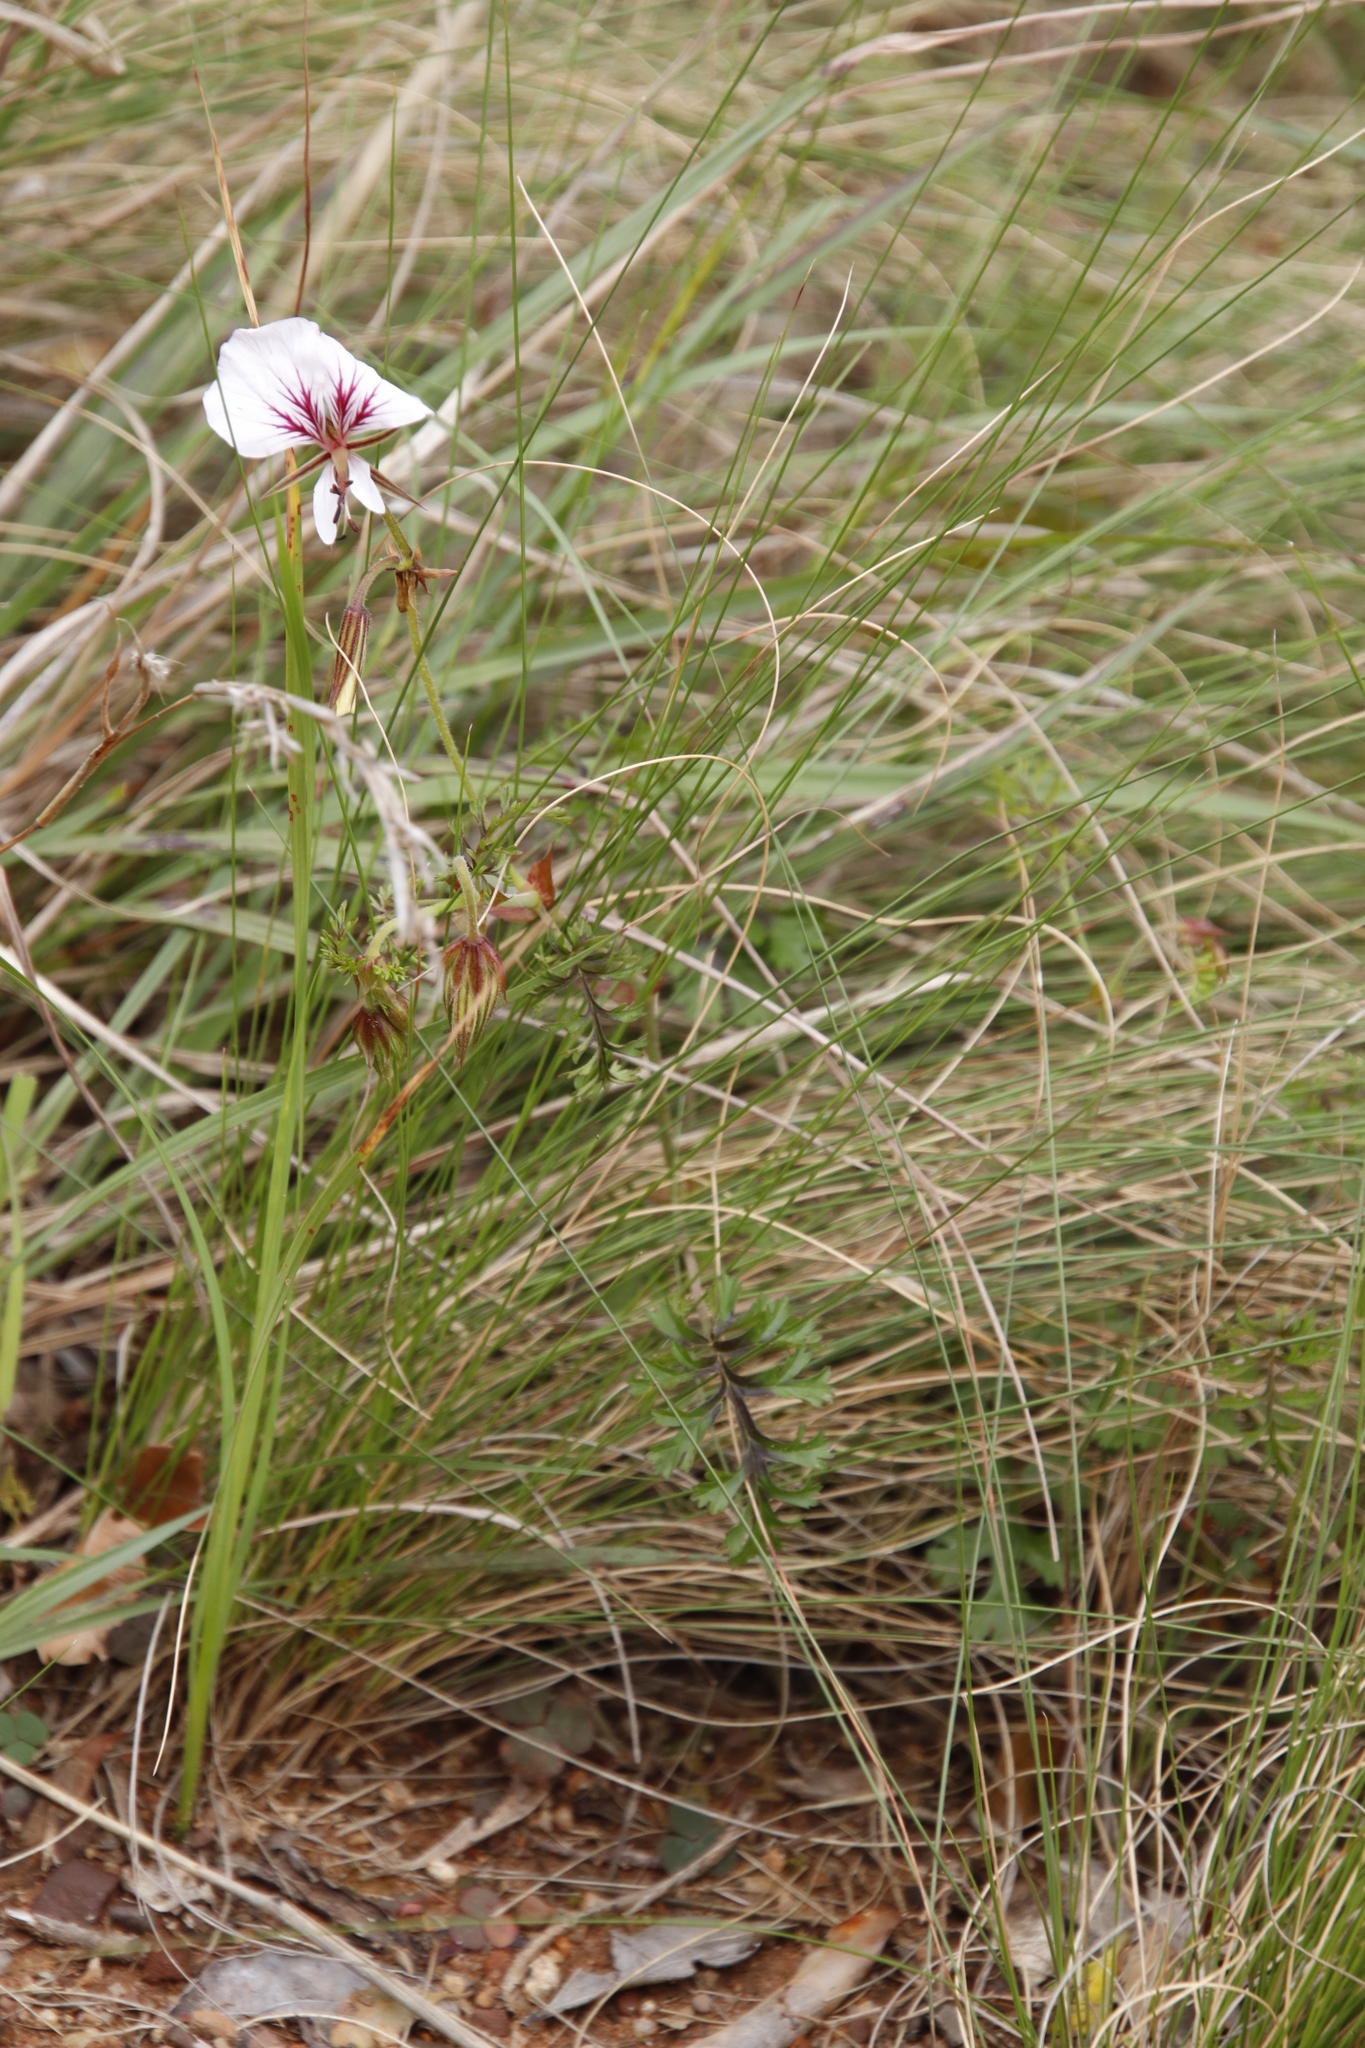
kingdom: Plantae
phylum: Tracheophyta
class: Magnoliopsida
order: Geraniales
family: Geraniaceae
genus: Pelargonium
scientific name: Pelargonium longicaule
